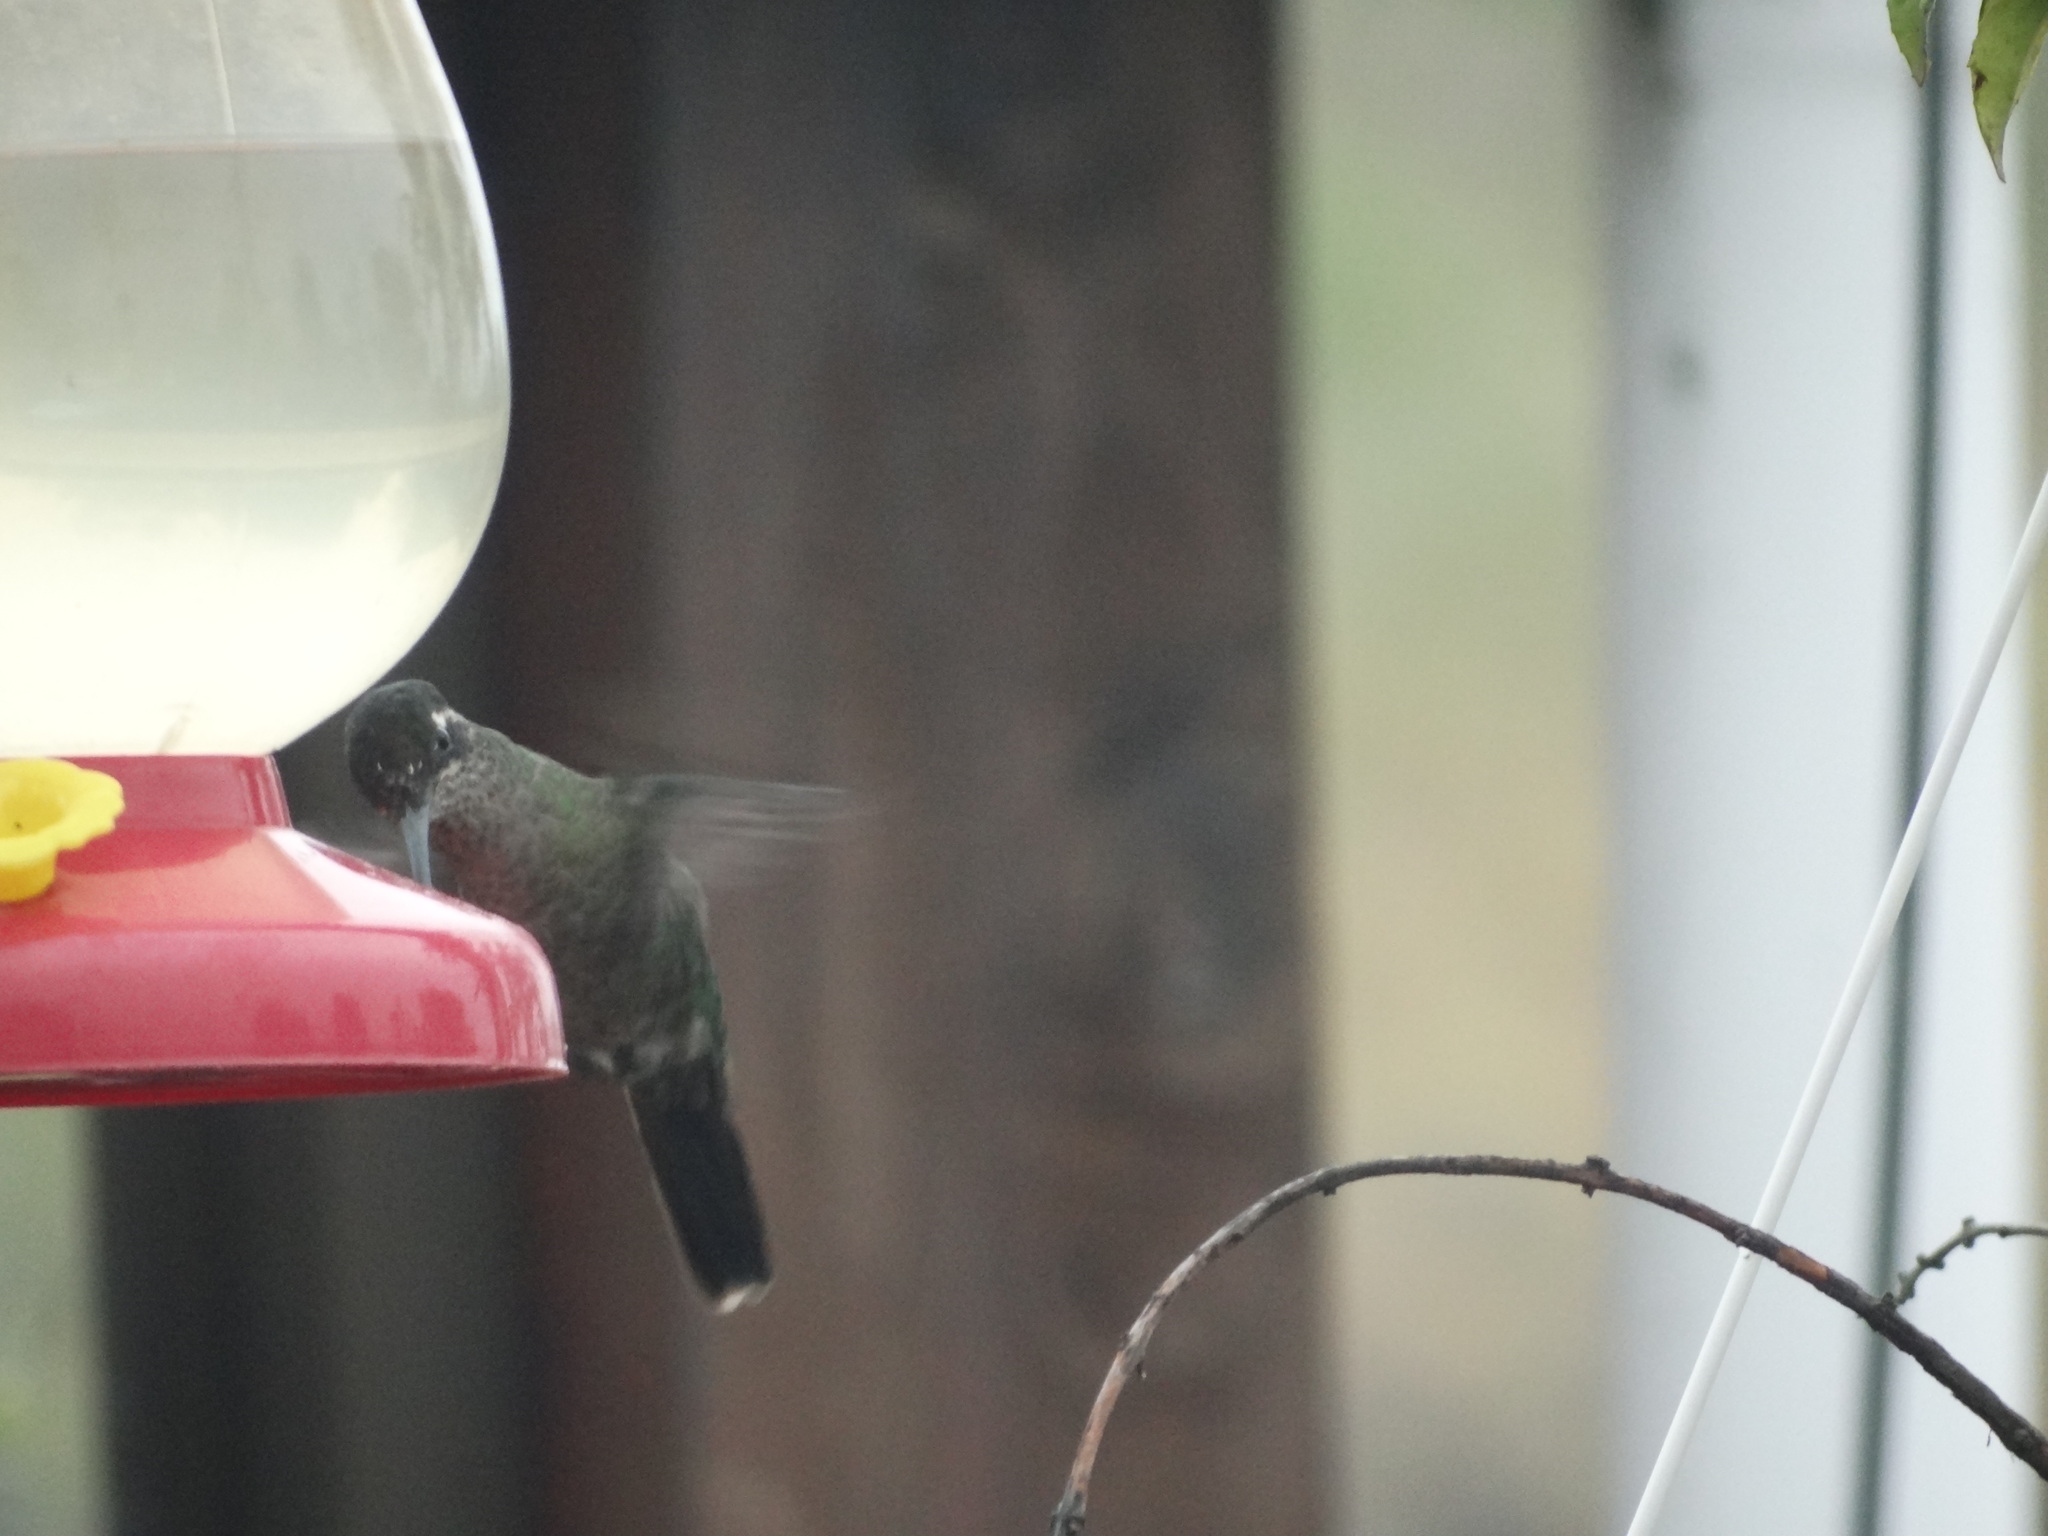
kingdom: Animalia
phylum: Chordata
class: Aves
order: Apodiformes
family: Trochilidae
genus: Eugenes
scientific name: Eugenes spectabilis
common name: Talamanca hummingbird
